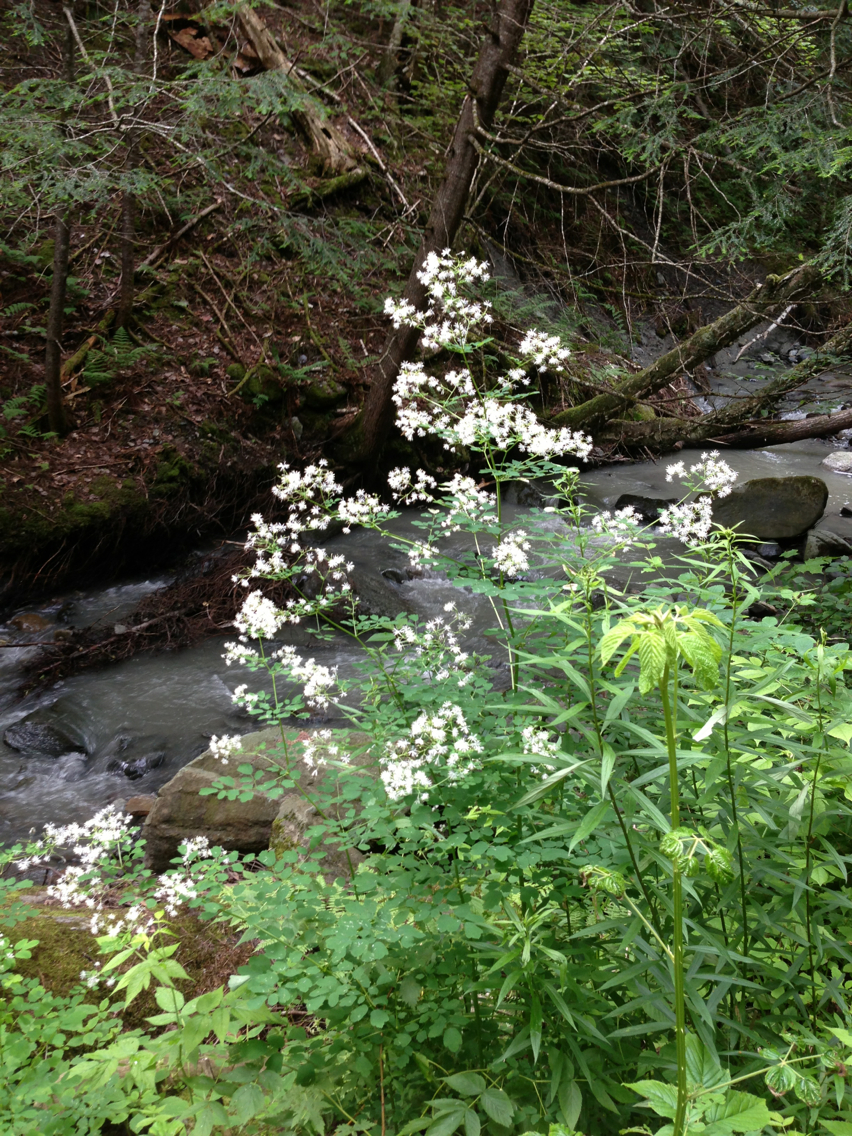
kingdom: Plantae
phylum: Tracheophyta
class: Magnoliopsida
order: Ranunculales
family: Ranunculaceae
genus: Thalictrum
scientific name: Thalictrum pubescens
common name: King-of-the-meadow
